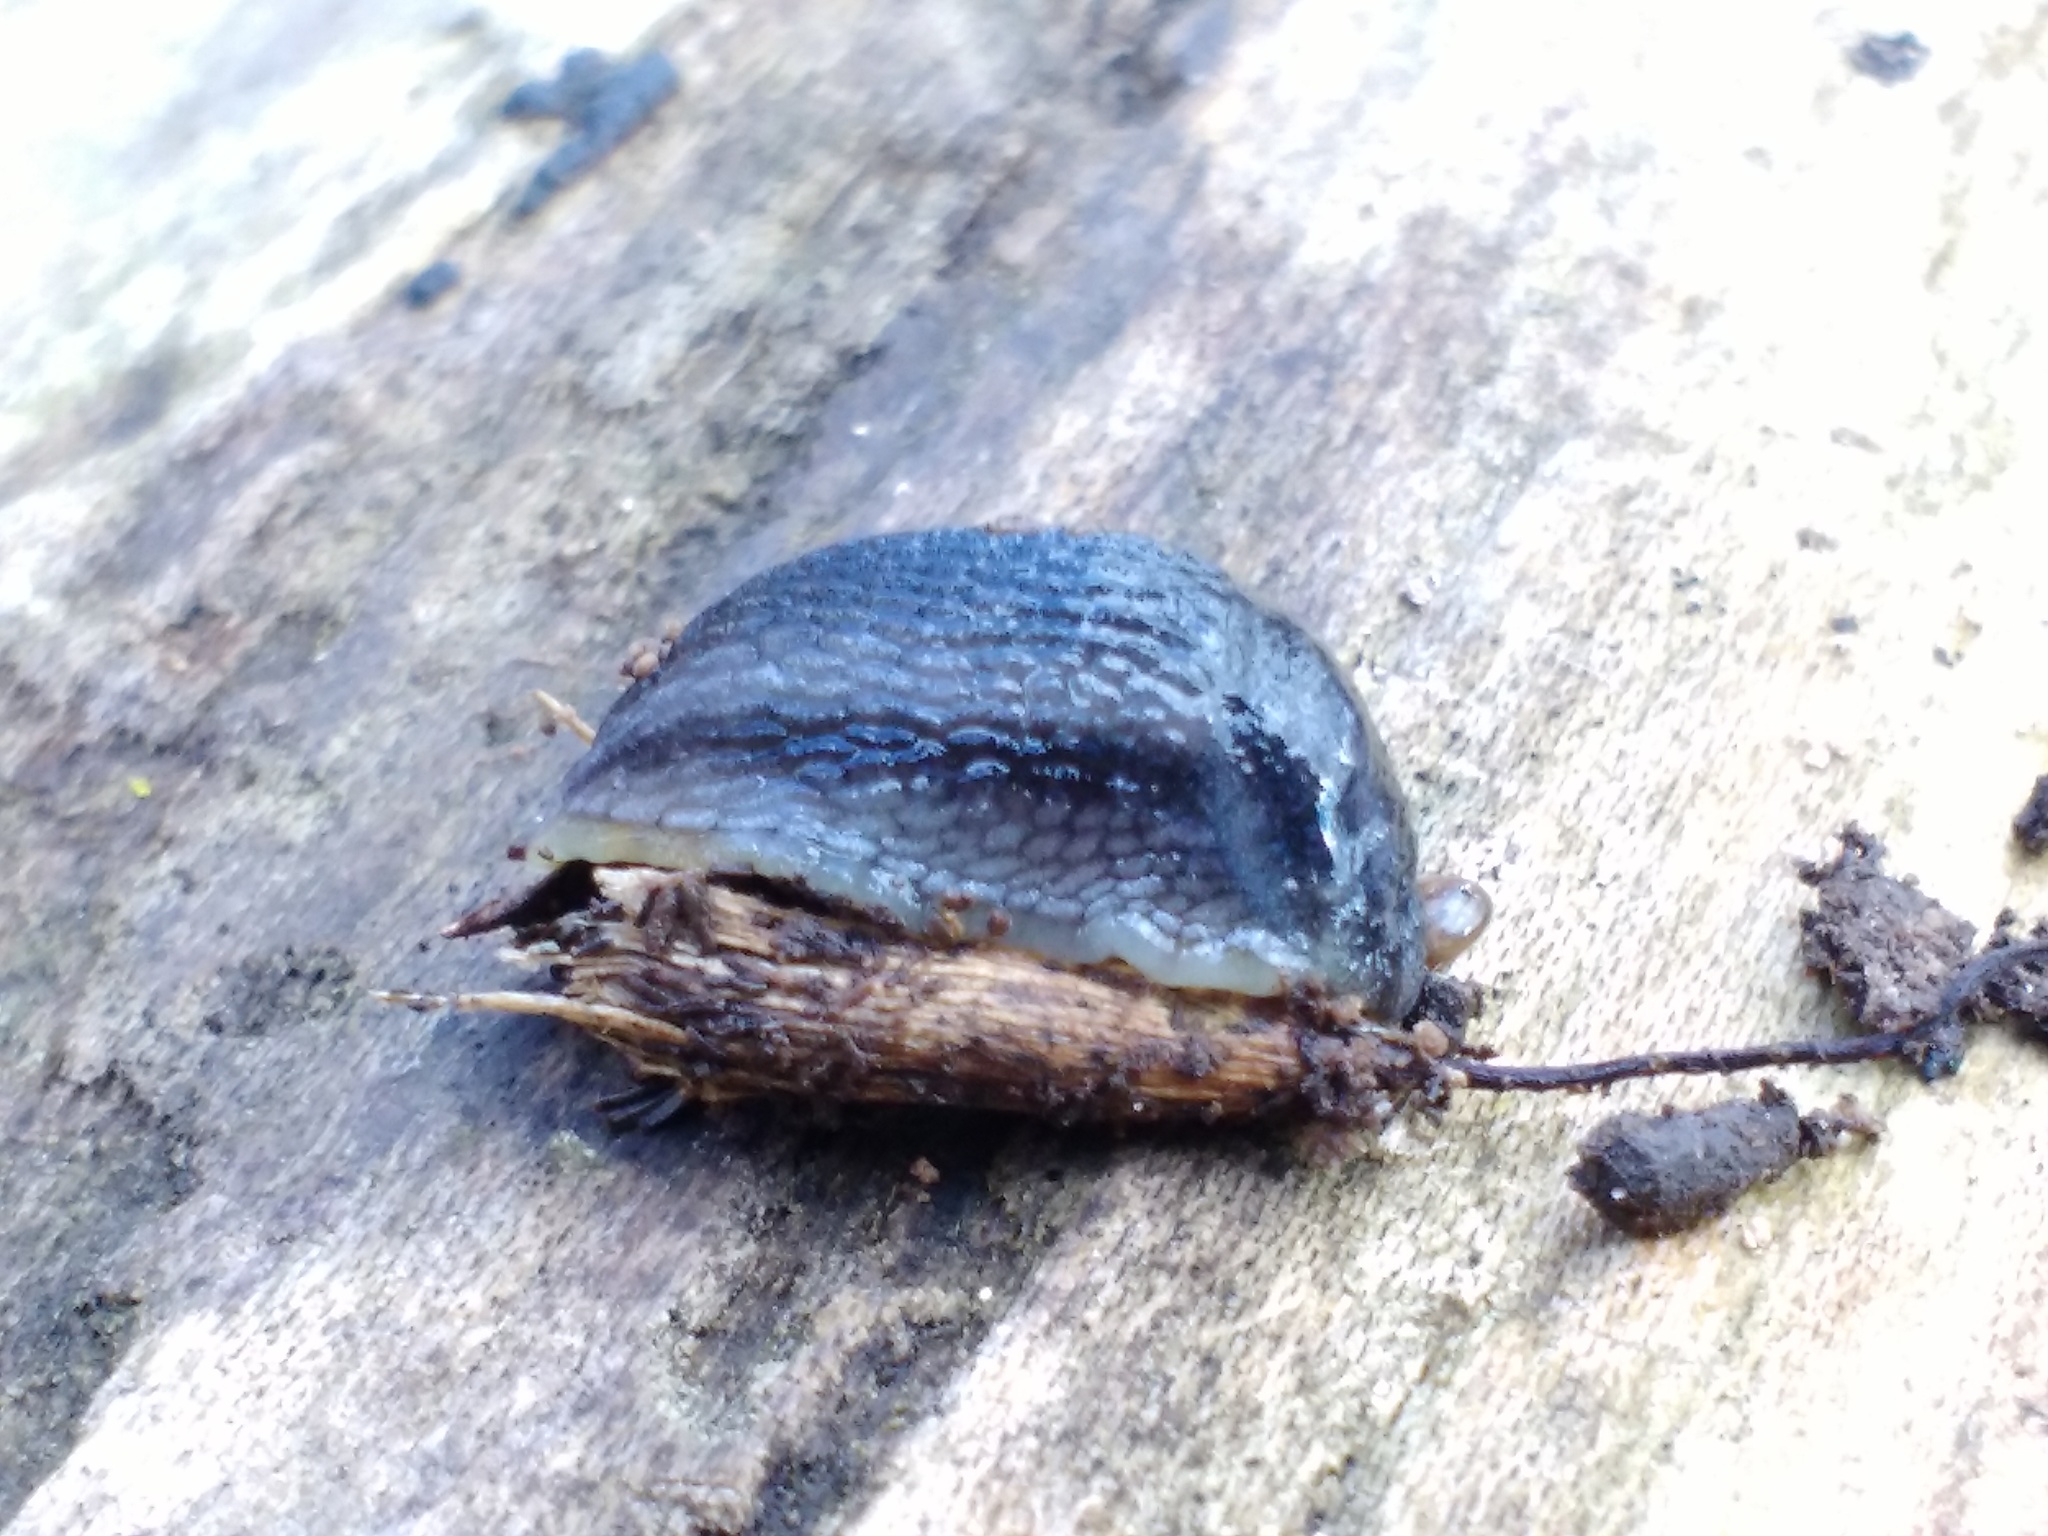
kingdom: Animalia
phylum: Mollusca
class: Gastropoda
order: Stylommatophora
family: Arionidae
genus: Arion
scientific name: Arion hortensis
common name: Garden arion
